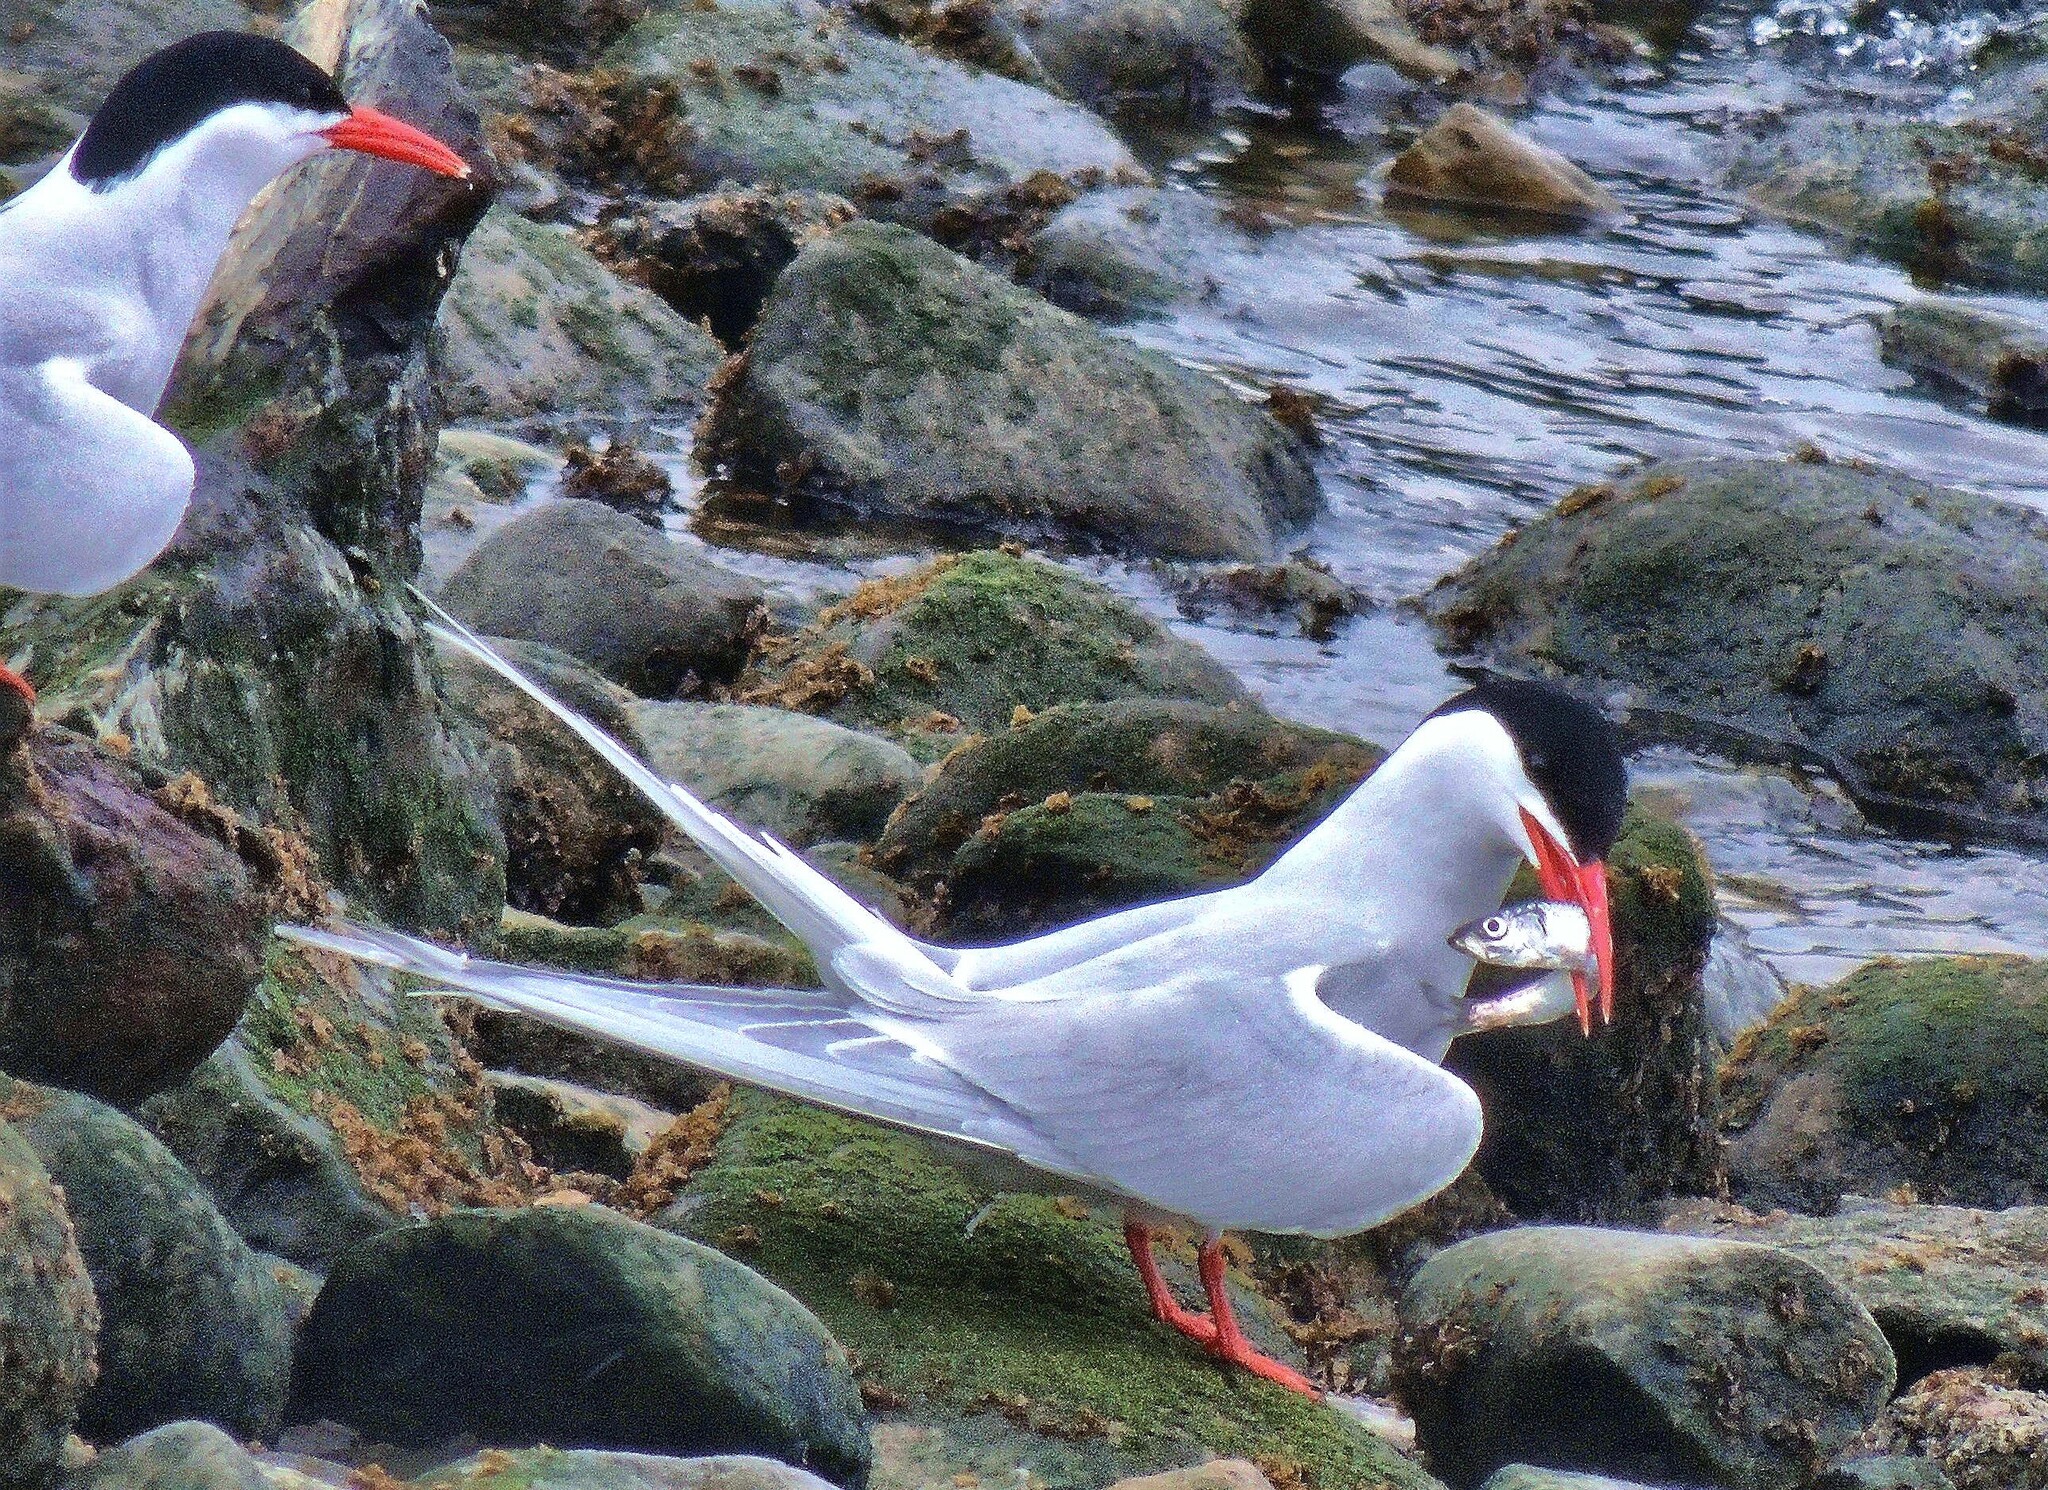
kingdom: Animalia
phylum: Chordata
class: Aves
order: Charadriiformes
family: Laridae
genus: Sterna
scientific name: Sterna hirundinacea
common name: South american tern
